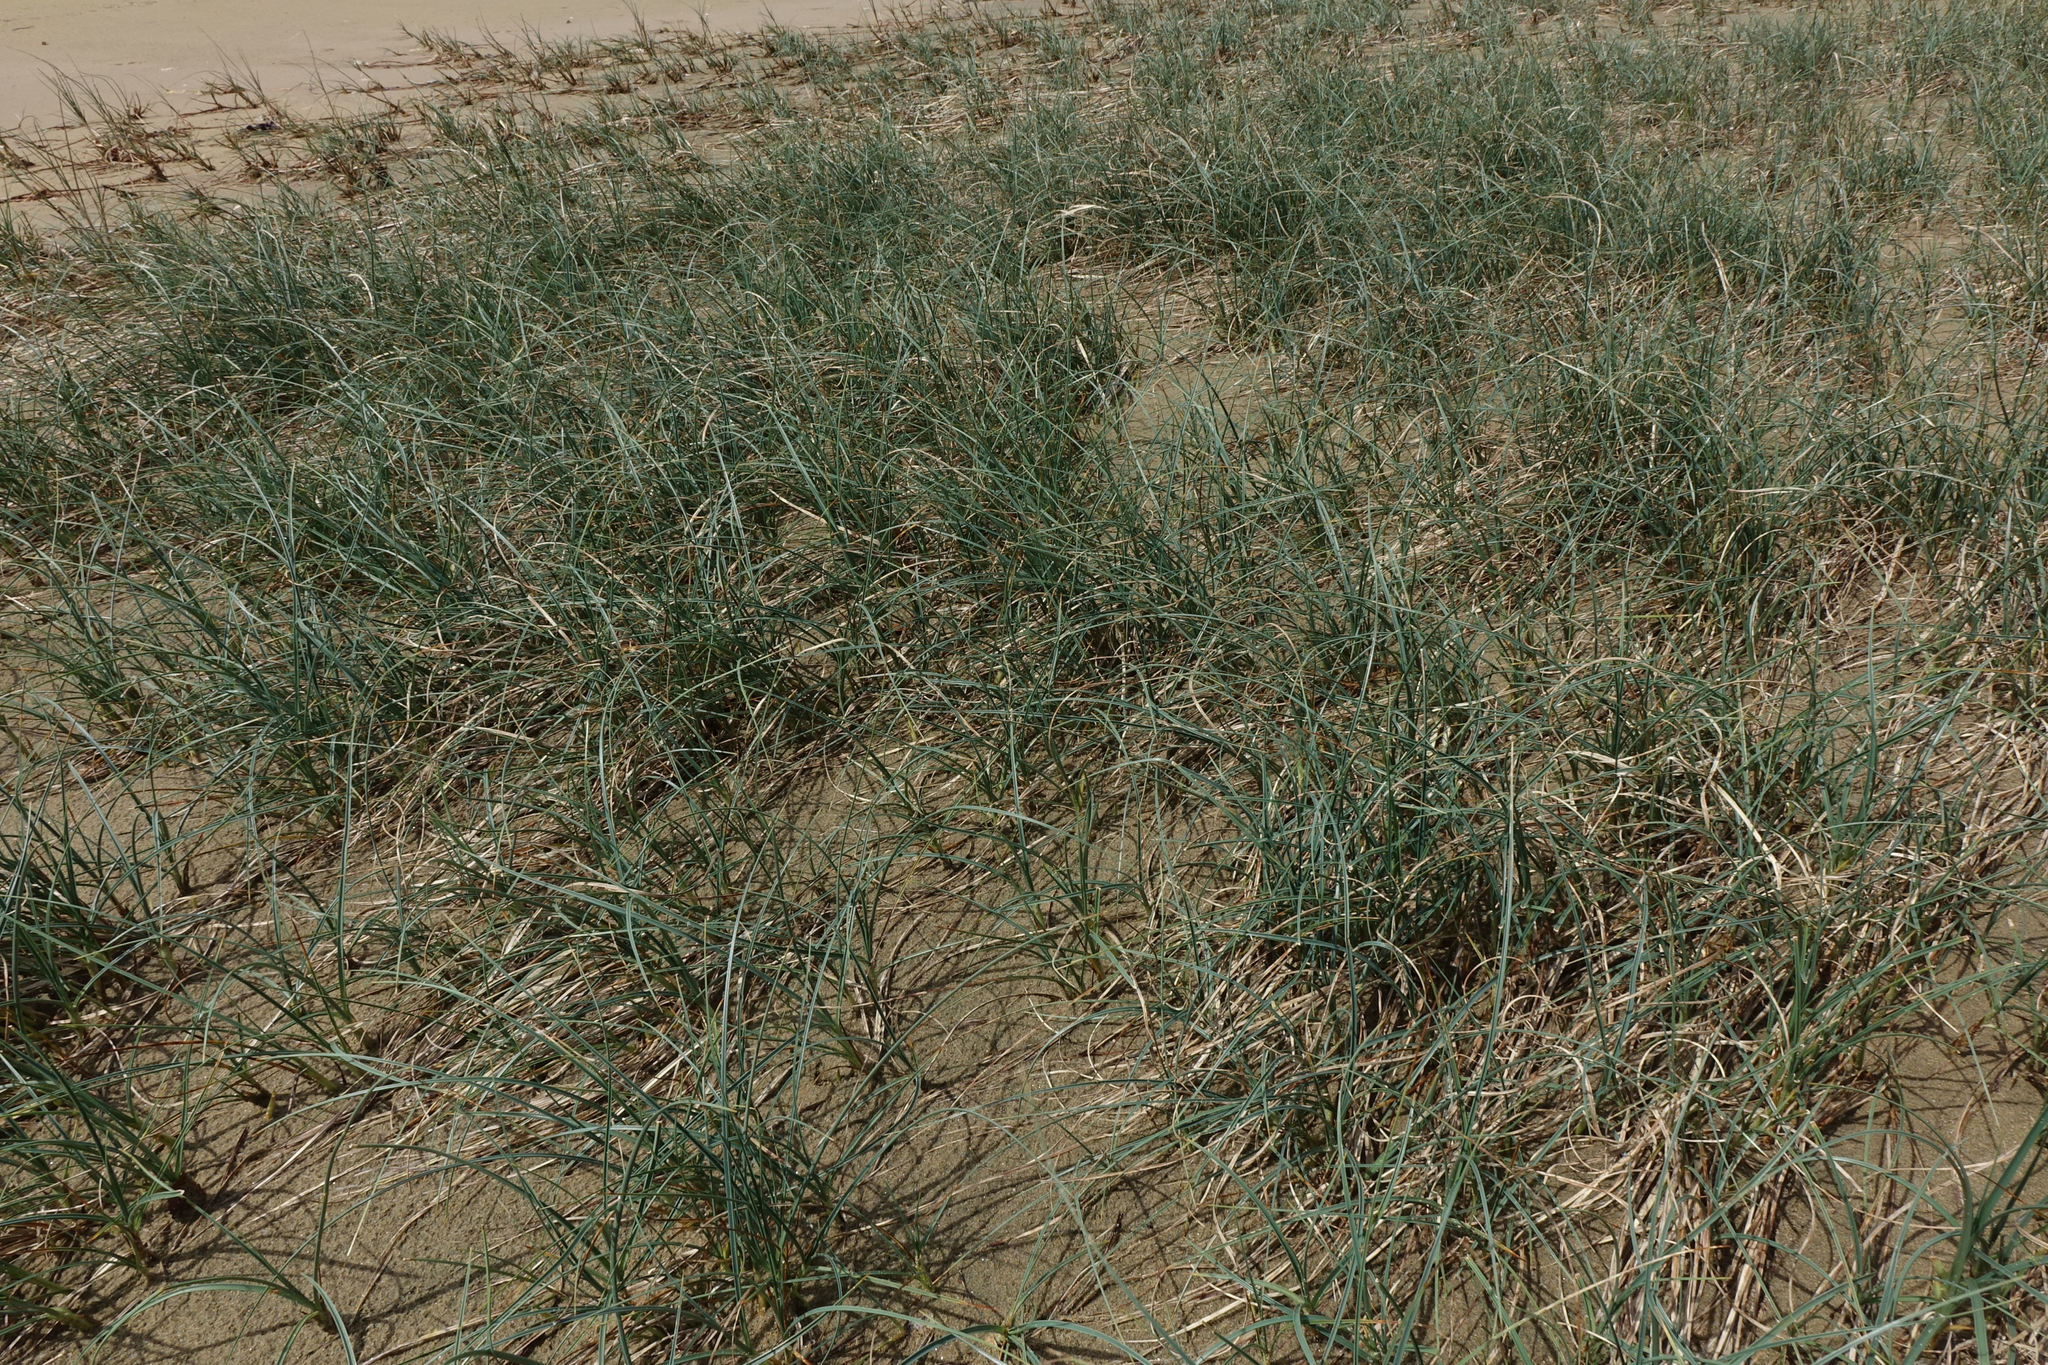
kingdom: Plantae
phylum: Tracheophyta
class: Liliopsida
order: Poales
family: Cyperaceae
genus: Carex
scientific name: Carex pumila
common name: Dwarf sedge
